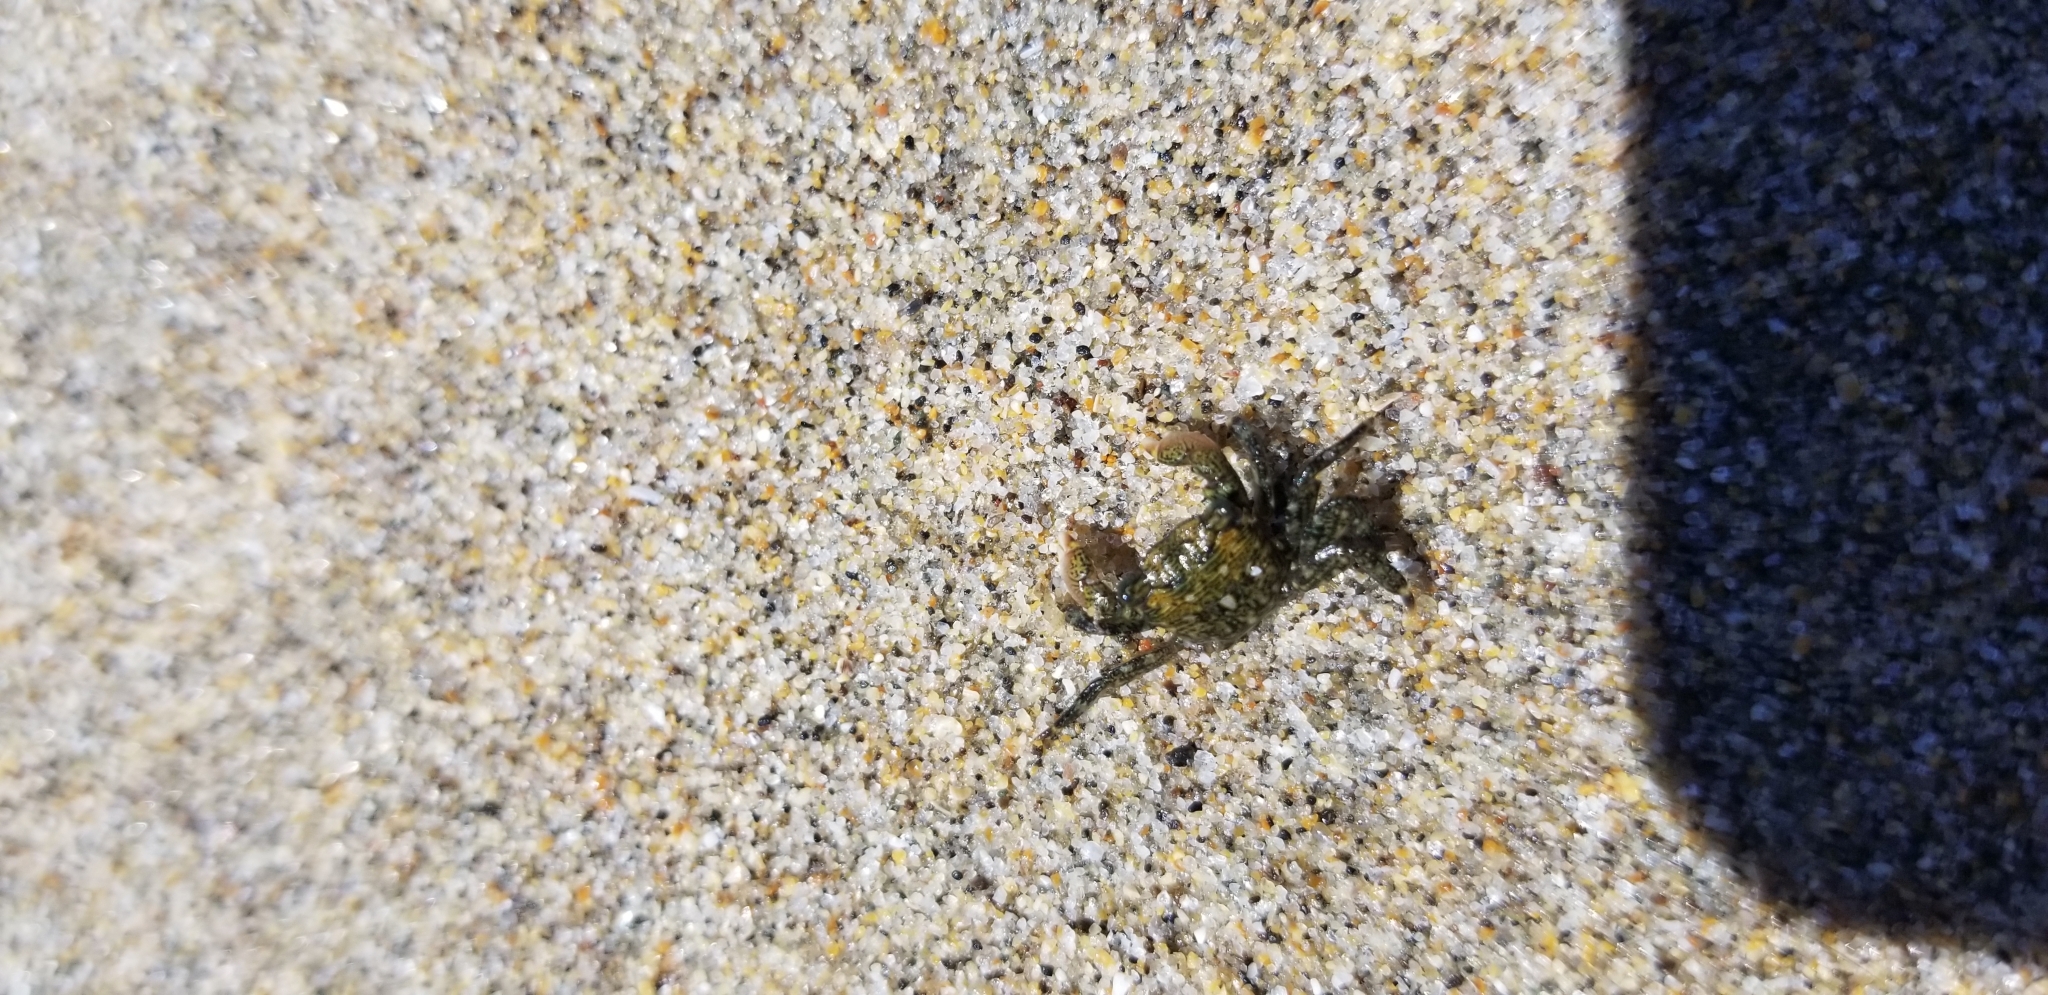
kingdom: Animalia
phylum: Arthropoda
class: Malacostraca
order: Decapoda
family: Grapsidae
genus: Pachygrapsus
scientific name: Pachygrapsus crassipes
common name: Striped shore crab
